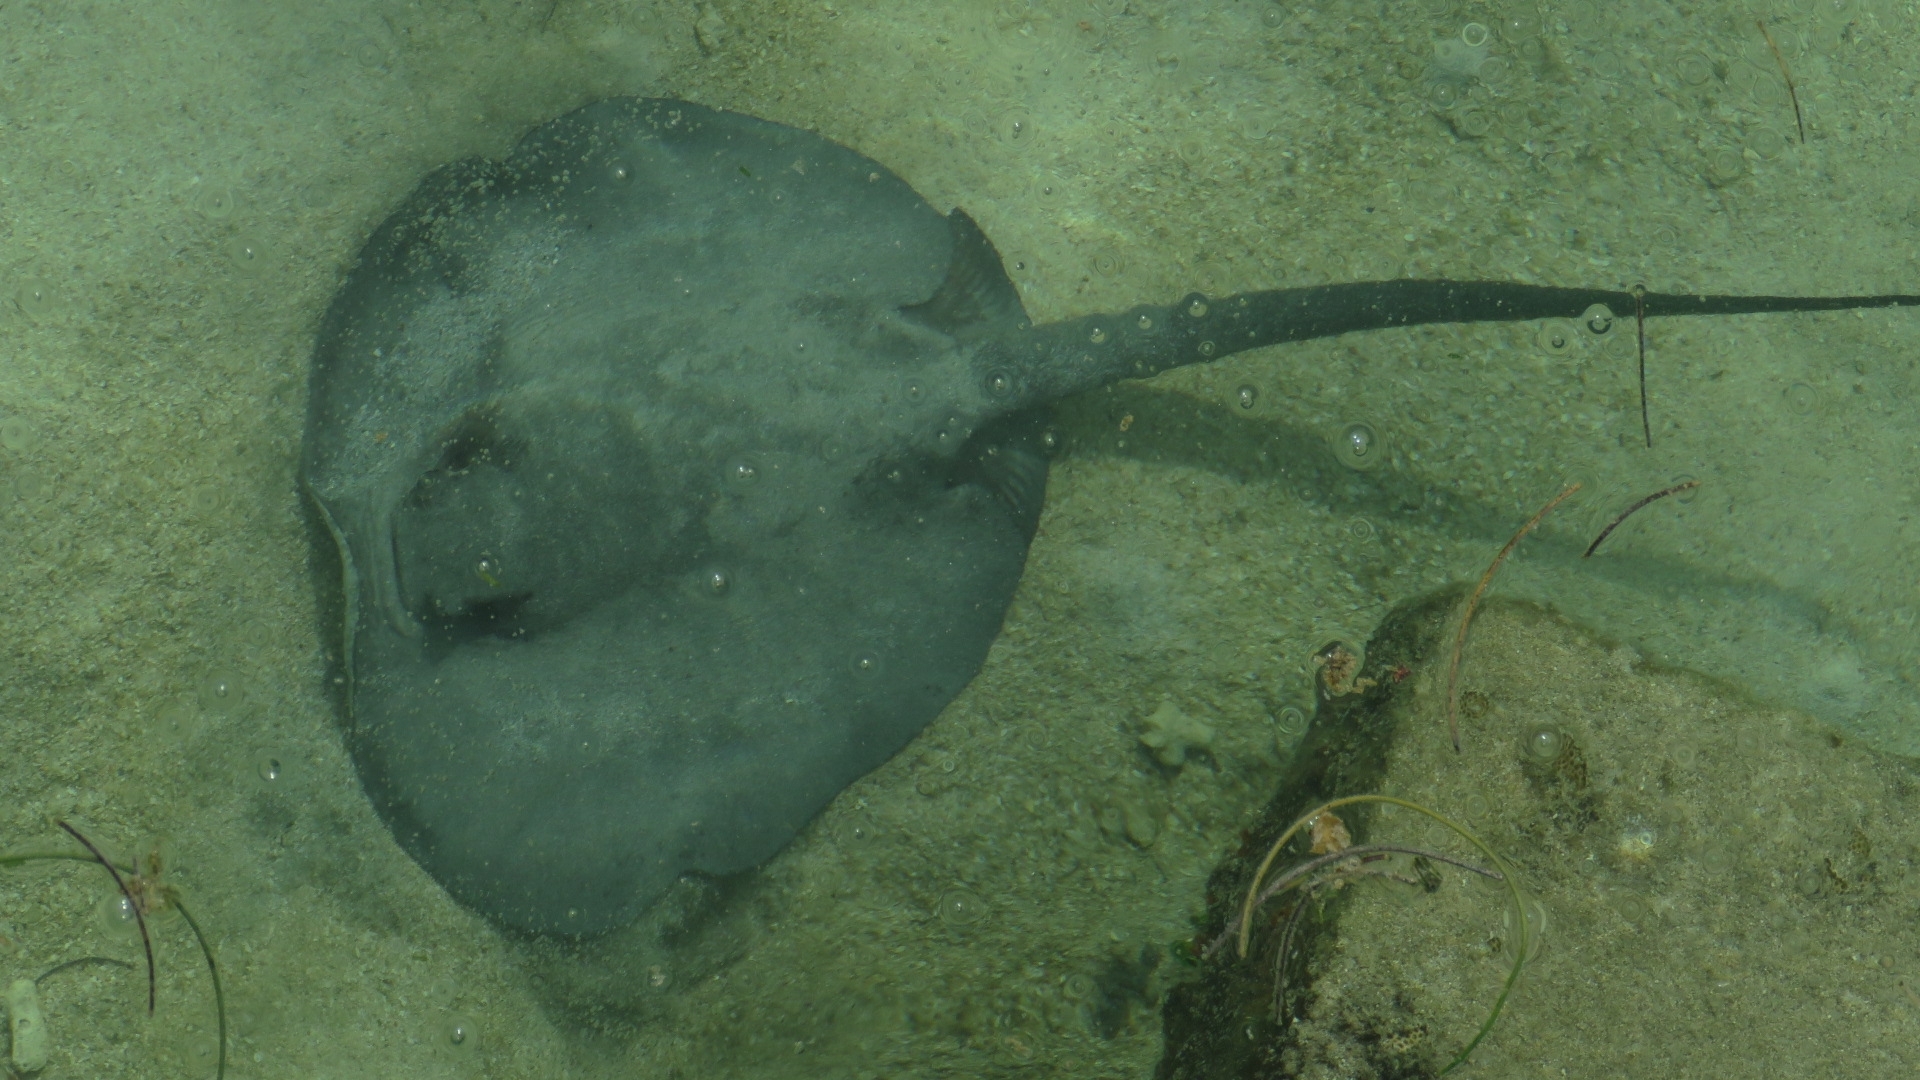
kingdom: Animalia
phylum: Chordata
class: Elasmobranchii
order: Myliobatiformes
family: Potamotrygonidae
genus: Styracura
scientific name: Styracura schmardae
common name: Atlantic chupare
